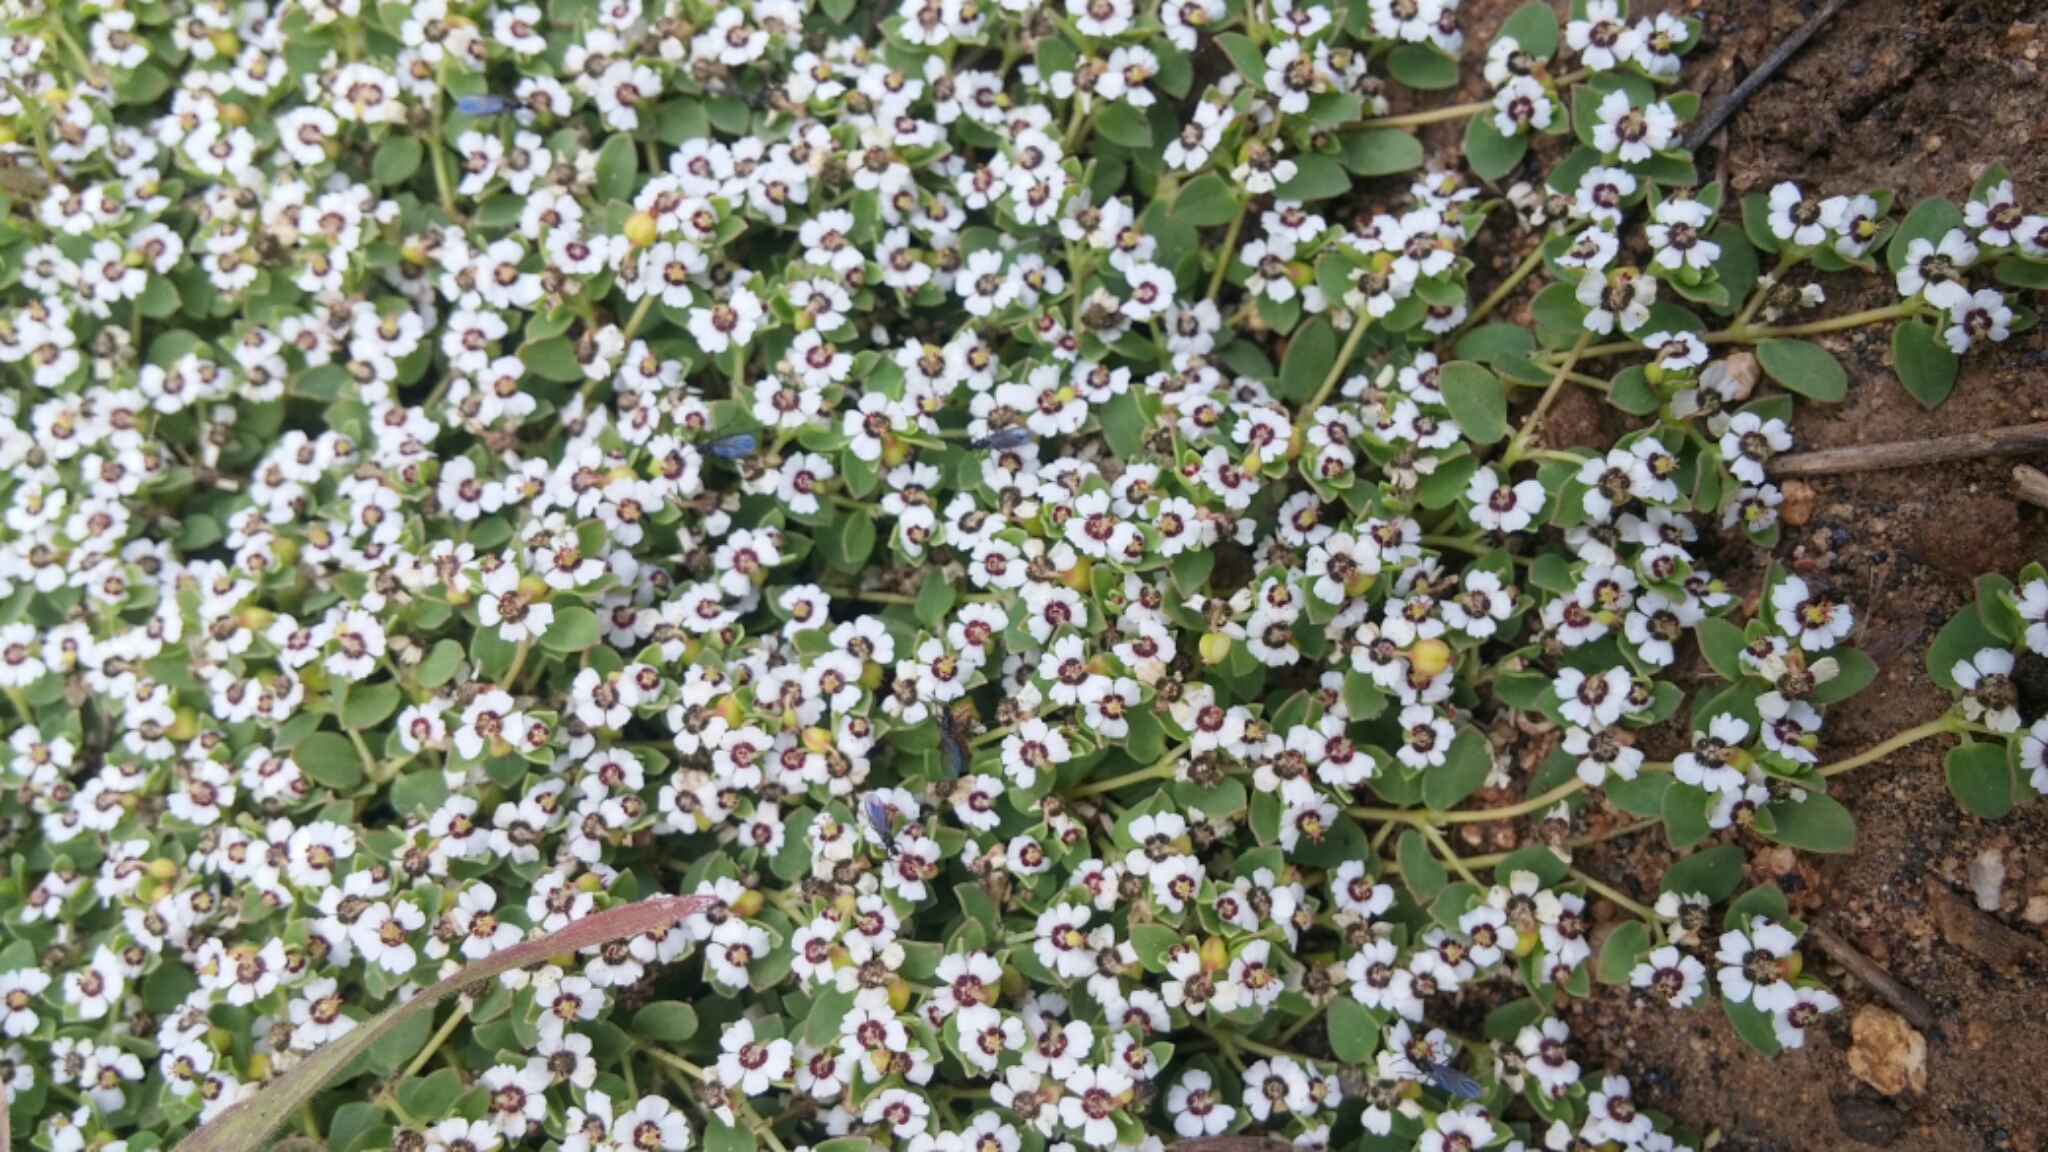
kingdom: Plantae
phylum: Tracheophyta
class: Magnoliopsida
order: Malpighiales
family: Euphorbiaceae
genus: Euphorbia
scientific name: Euphorbia polycarpa
